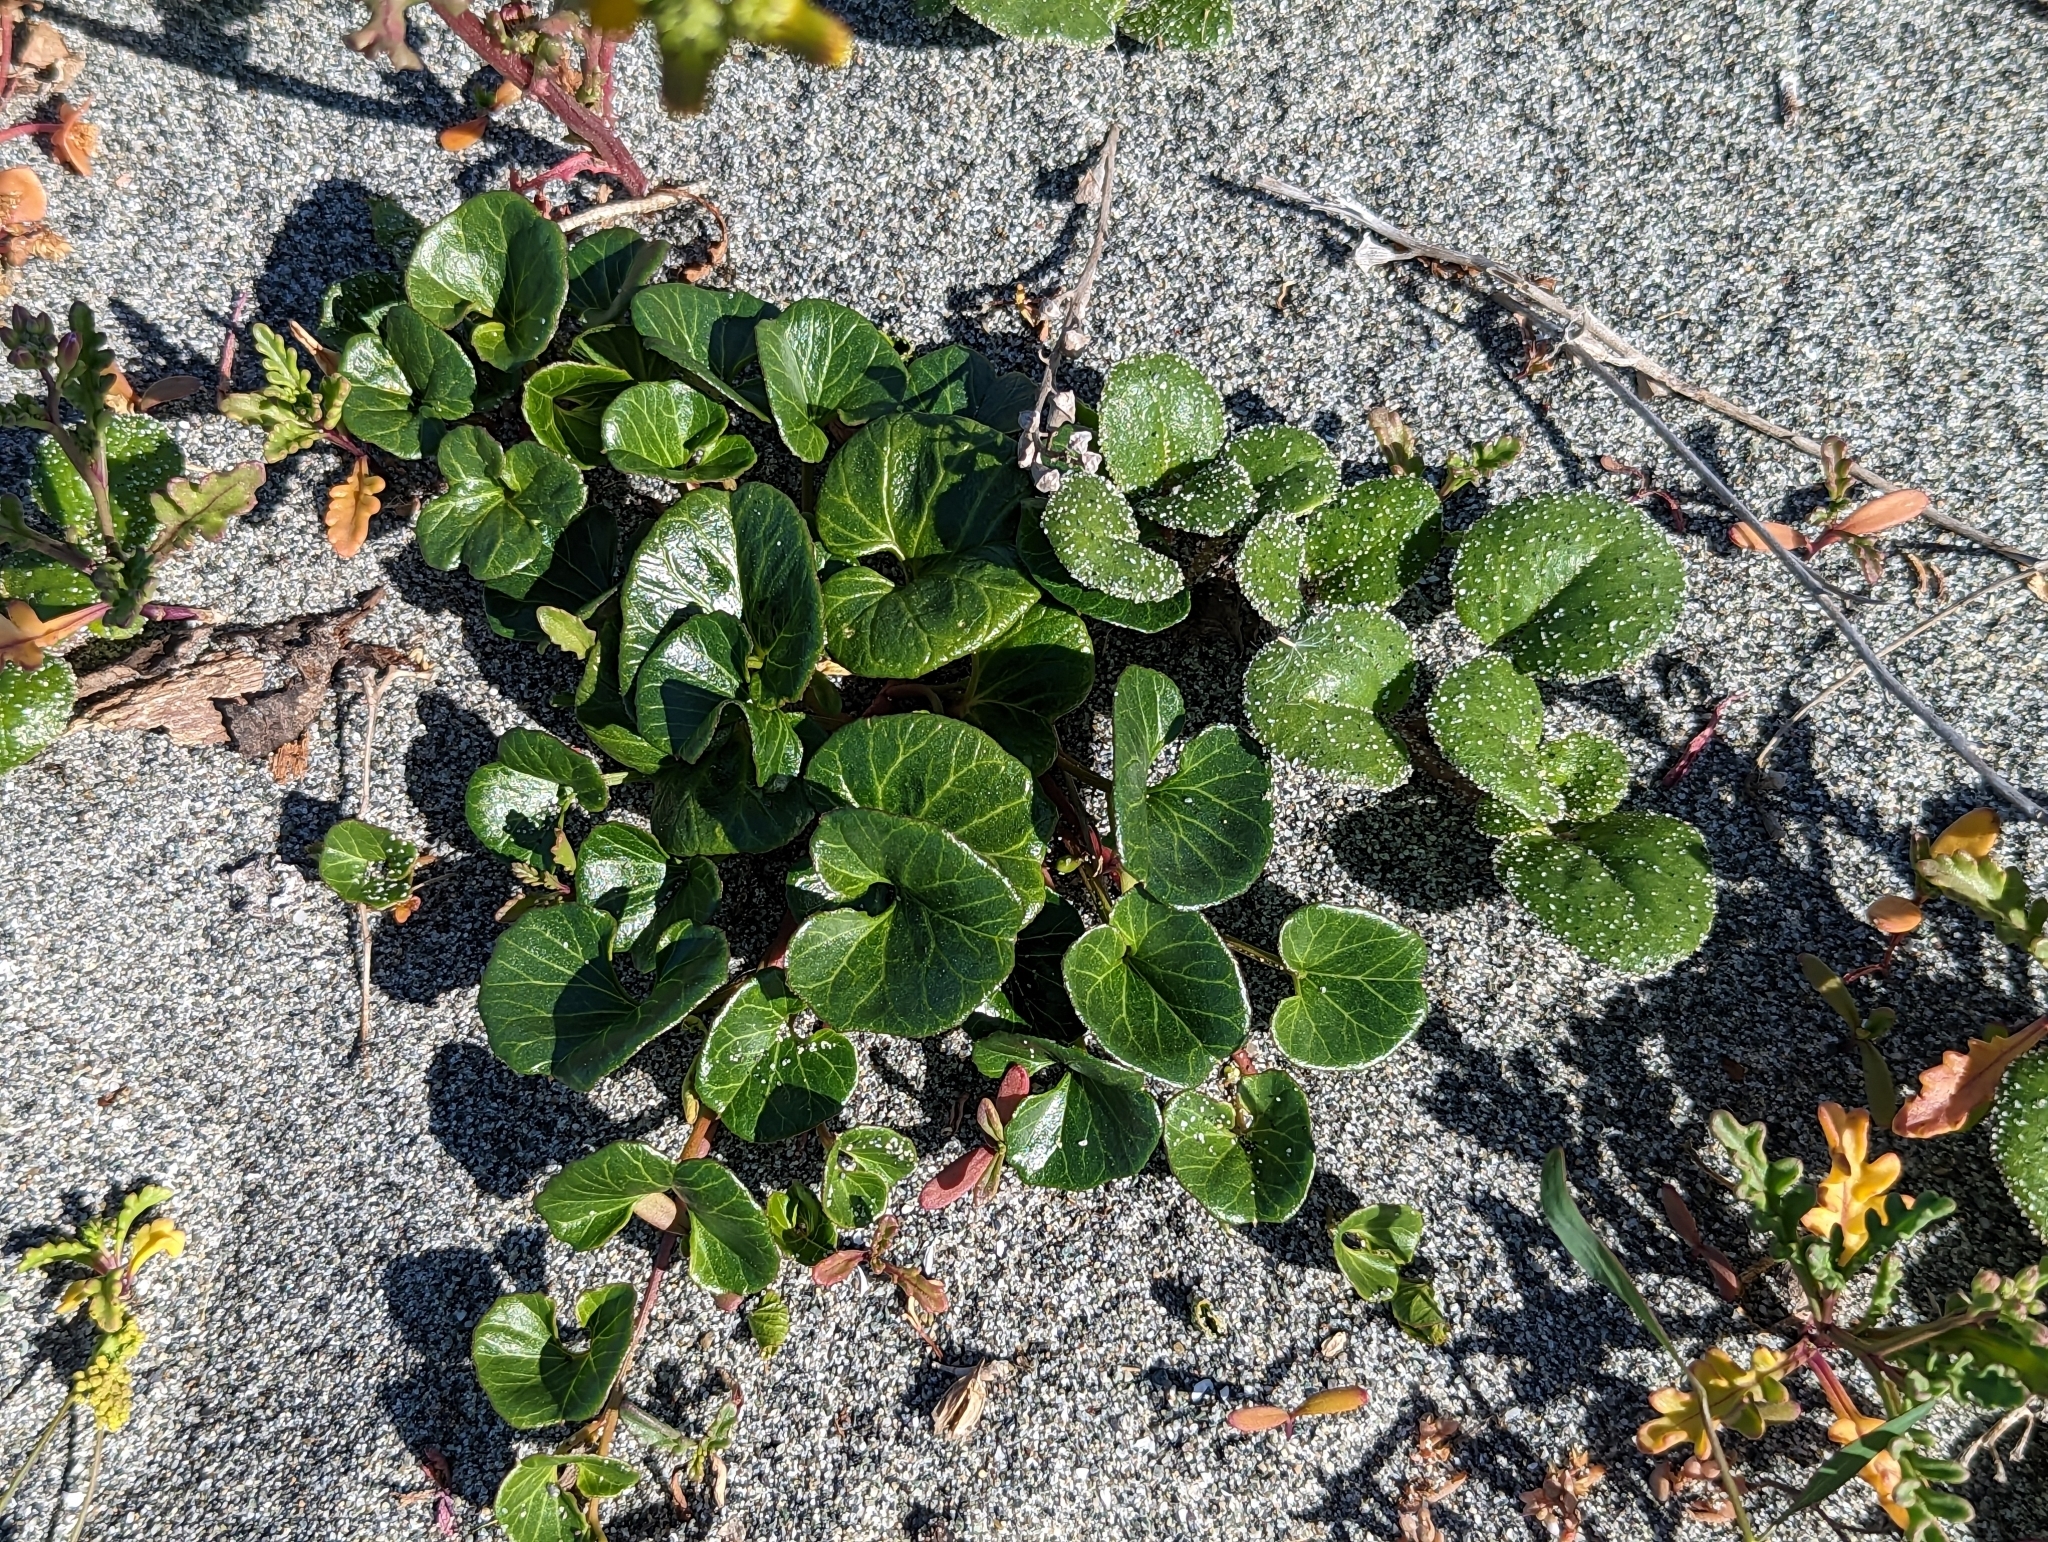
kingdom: Plantae
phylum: Tracheophyta
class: Magnoliopsida
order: Caryophyllales
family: Nyctaginaceae
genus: Abronia
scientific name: Abronia latifolia
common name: Yellow sand-verbena
